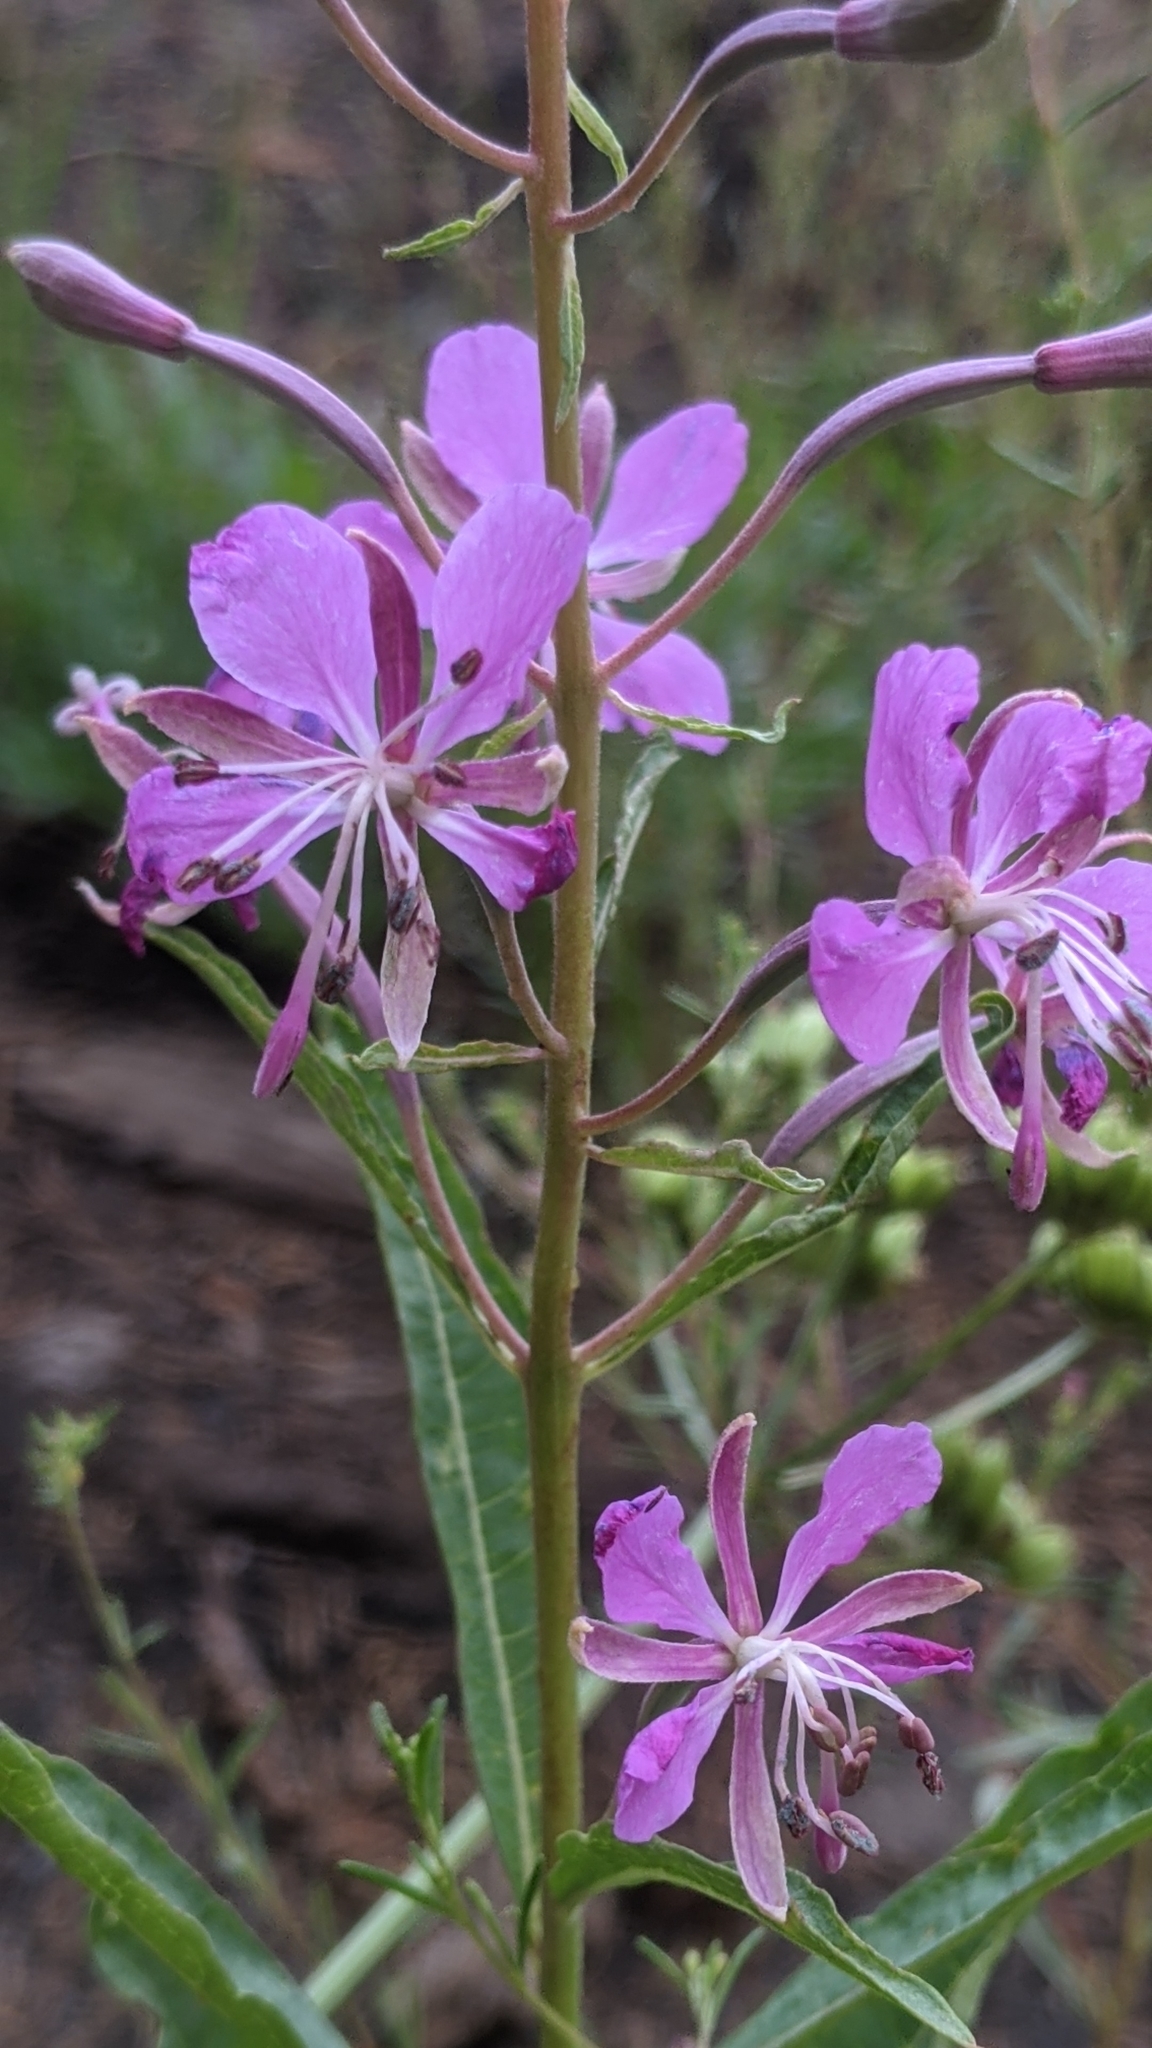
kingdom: Plantae
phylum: Tracheophyta
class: Magnoliopsida
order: Myrtales
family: Onagraceae
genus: Chamaenerion
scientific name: Chamaenerion angustifolium
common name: Fireweed
